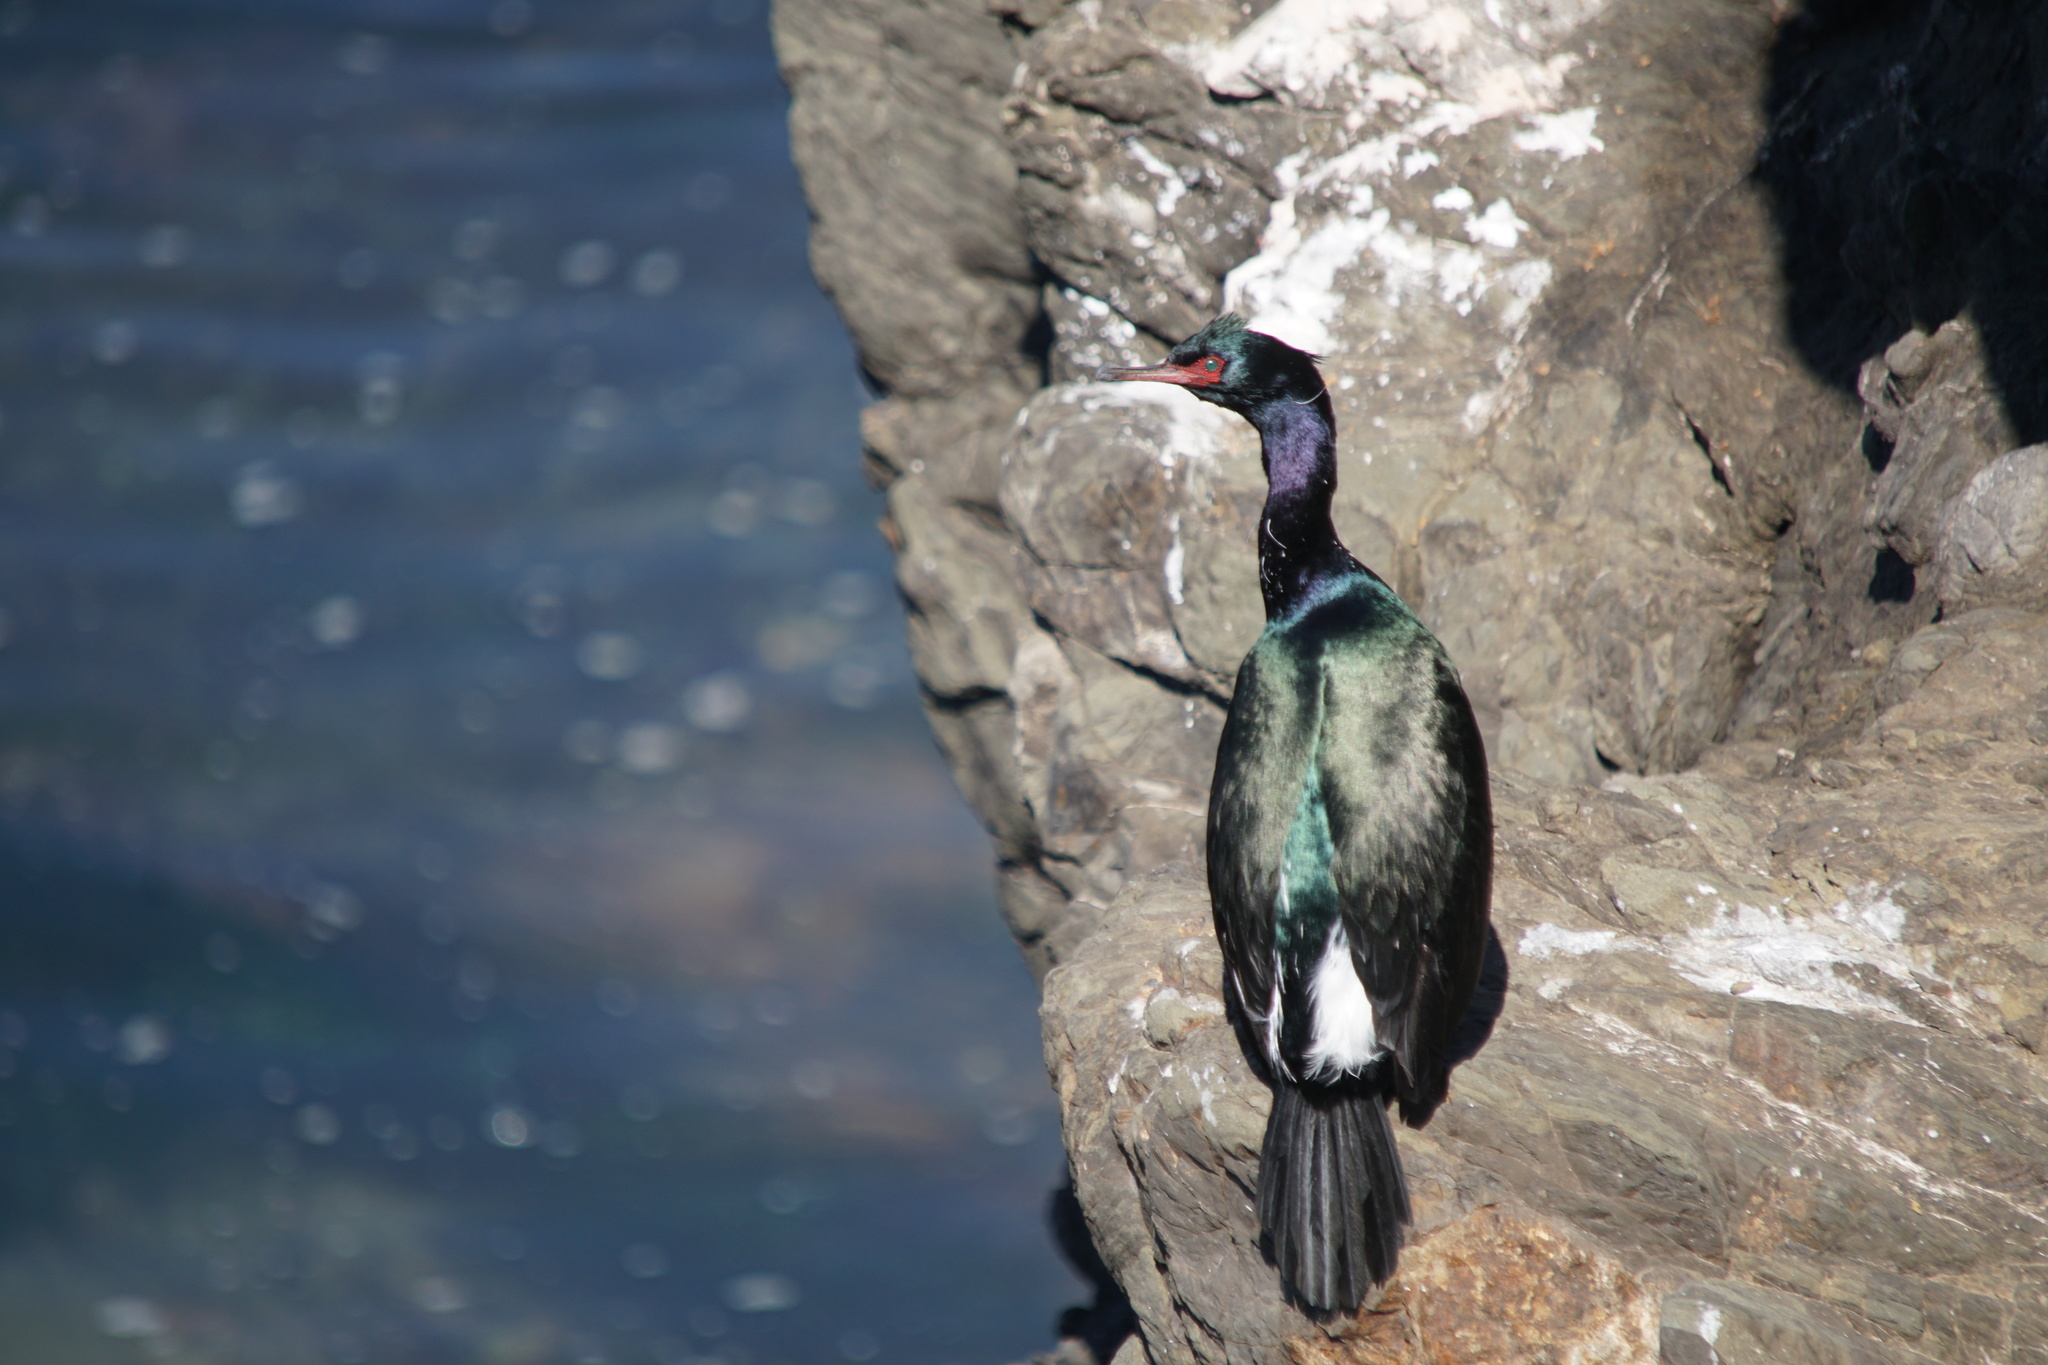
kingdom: Animalia
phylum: Chordata
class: Aves
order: Suliformes
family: Phalacrocoracidae
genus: Phalacrocorax
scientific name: Phalacrocorax pelagicus
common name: Pelagic cormorant
